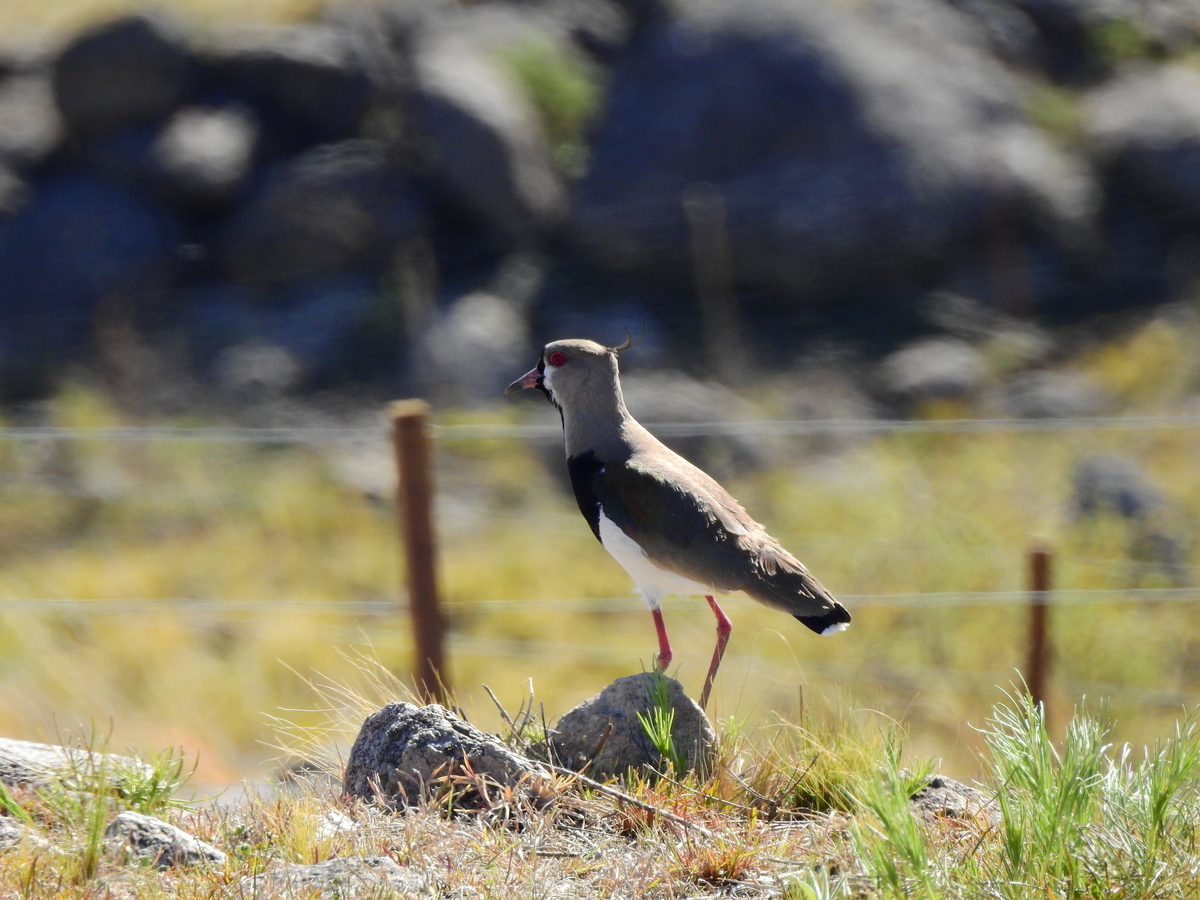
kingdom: Animalia
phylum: Chordata
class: Aves
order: Charadriiformes
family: Charadriidae
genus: Vanellus
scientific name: Vanellus chilensis
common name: Southern lapwing
